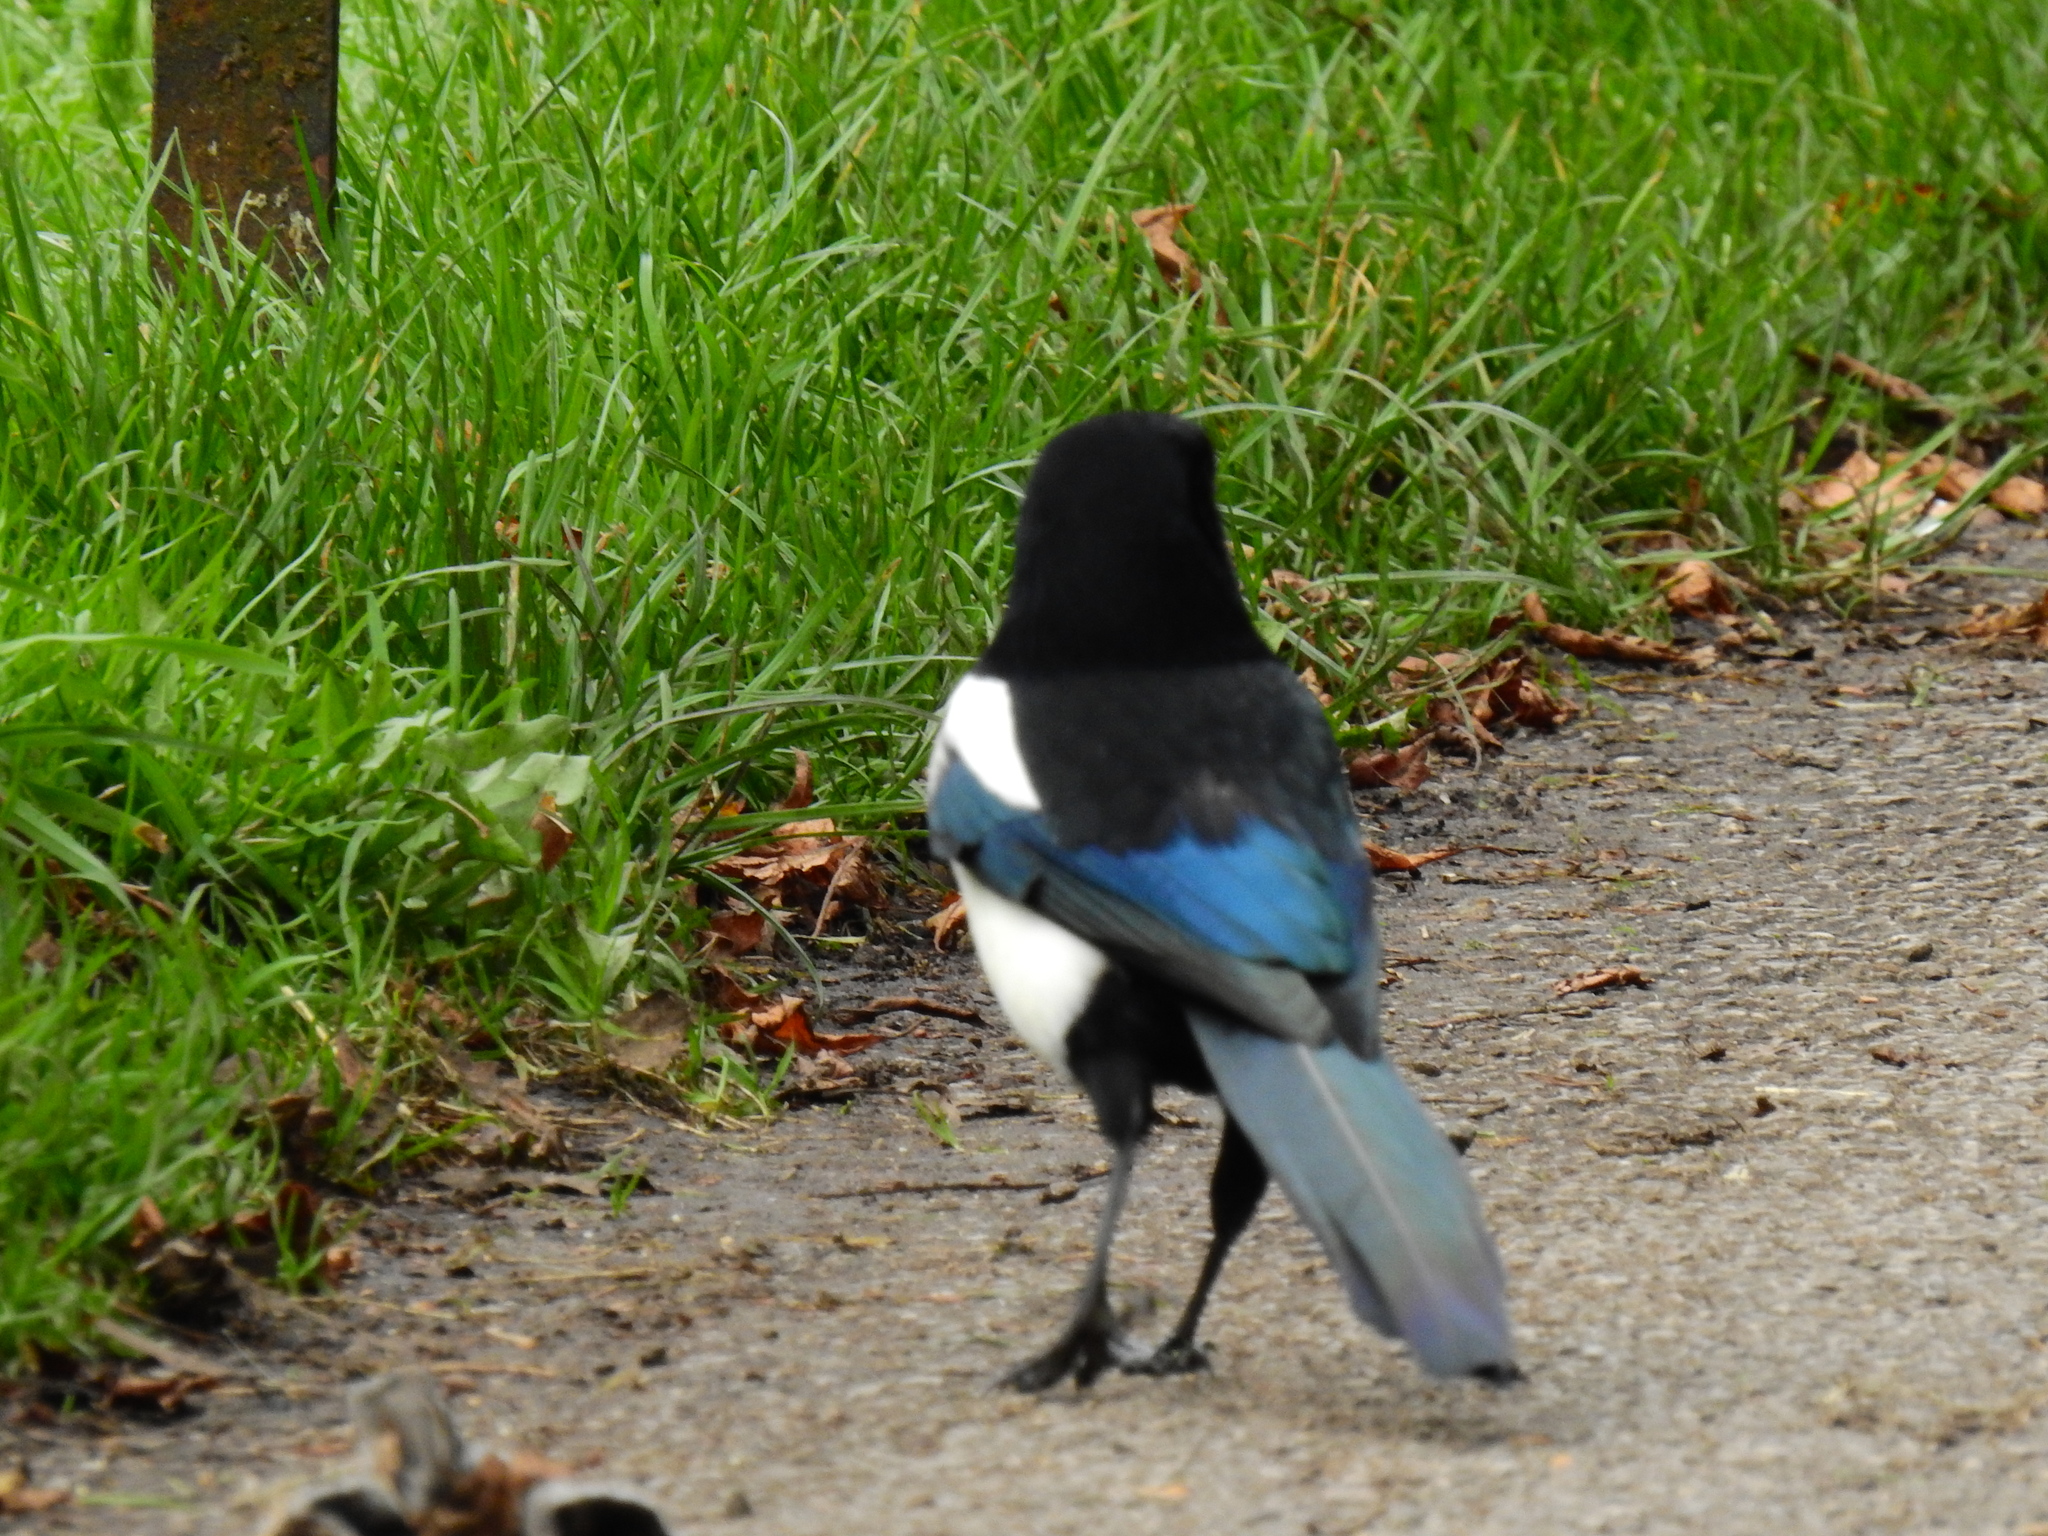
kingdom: Animalia
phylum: Chordata
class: Aves
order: Passeriformes
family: Corvidae
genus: Pica
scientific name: Pica pica
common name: Eurasian magpie
